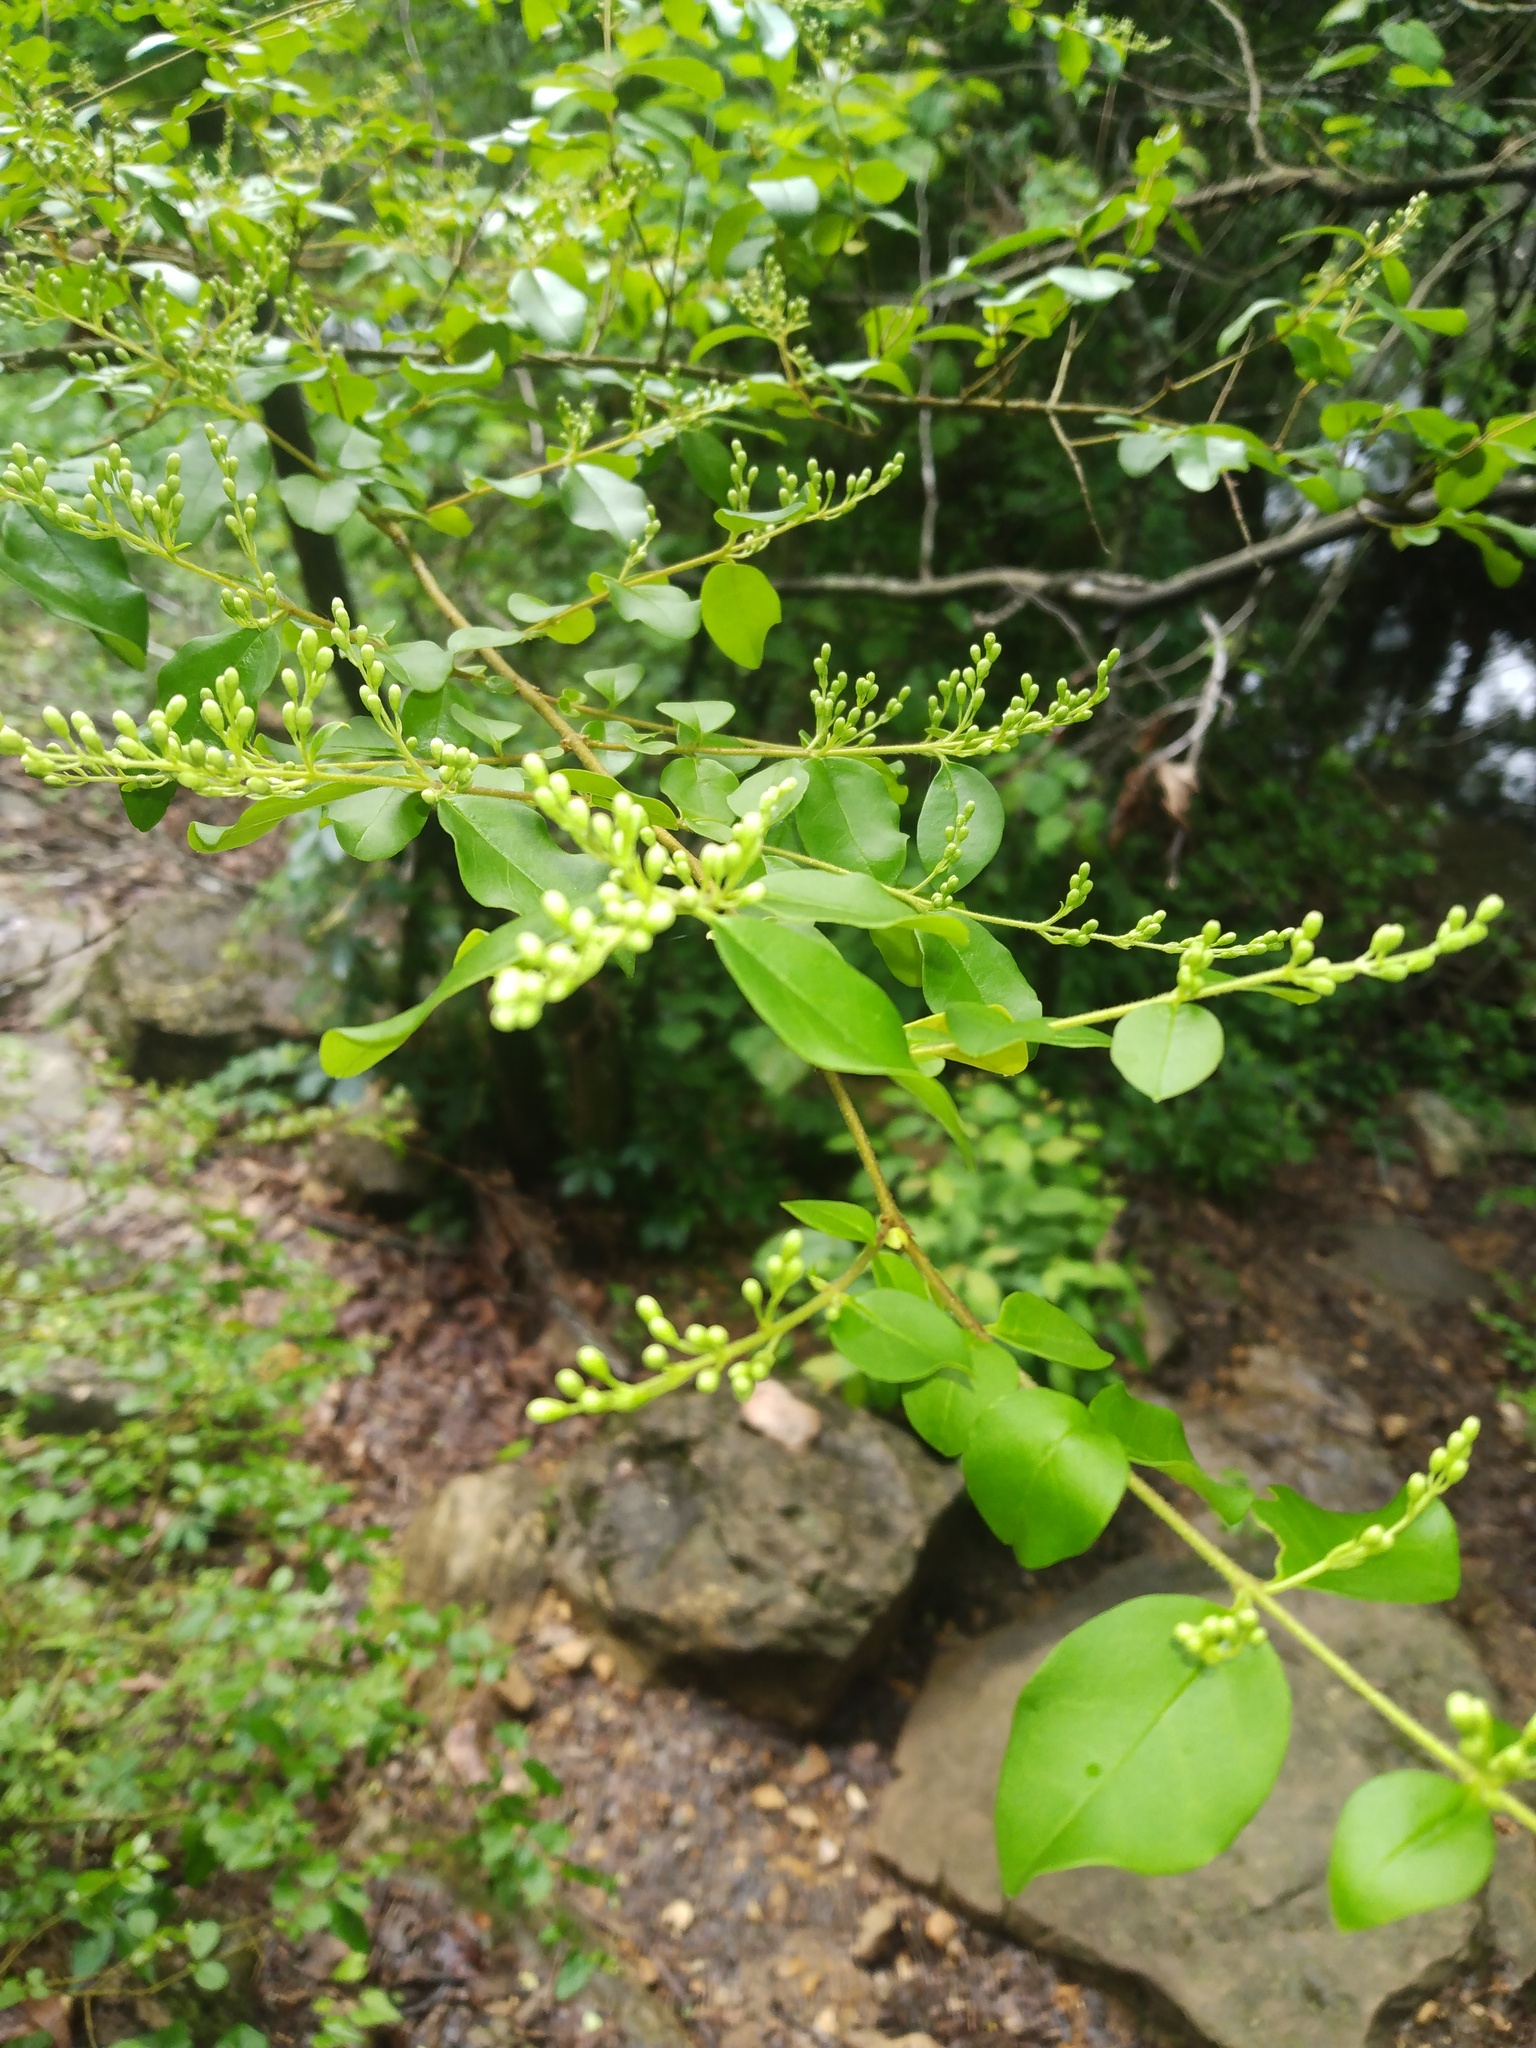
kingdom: Plantae
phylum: Tracheophyta
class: Magnoliopsida
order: Lamiales
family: Oleaceae
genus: Ligustrum
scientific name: Ligustrum sinense
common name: Chinese privet
